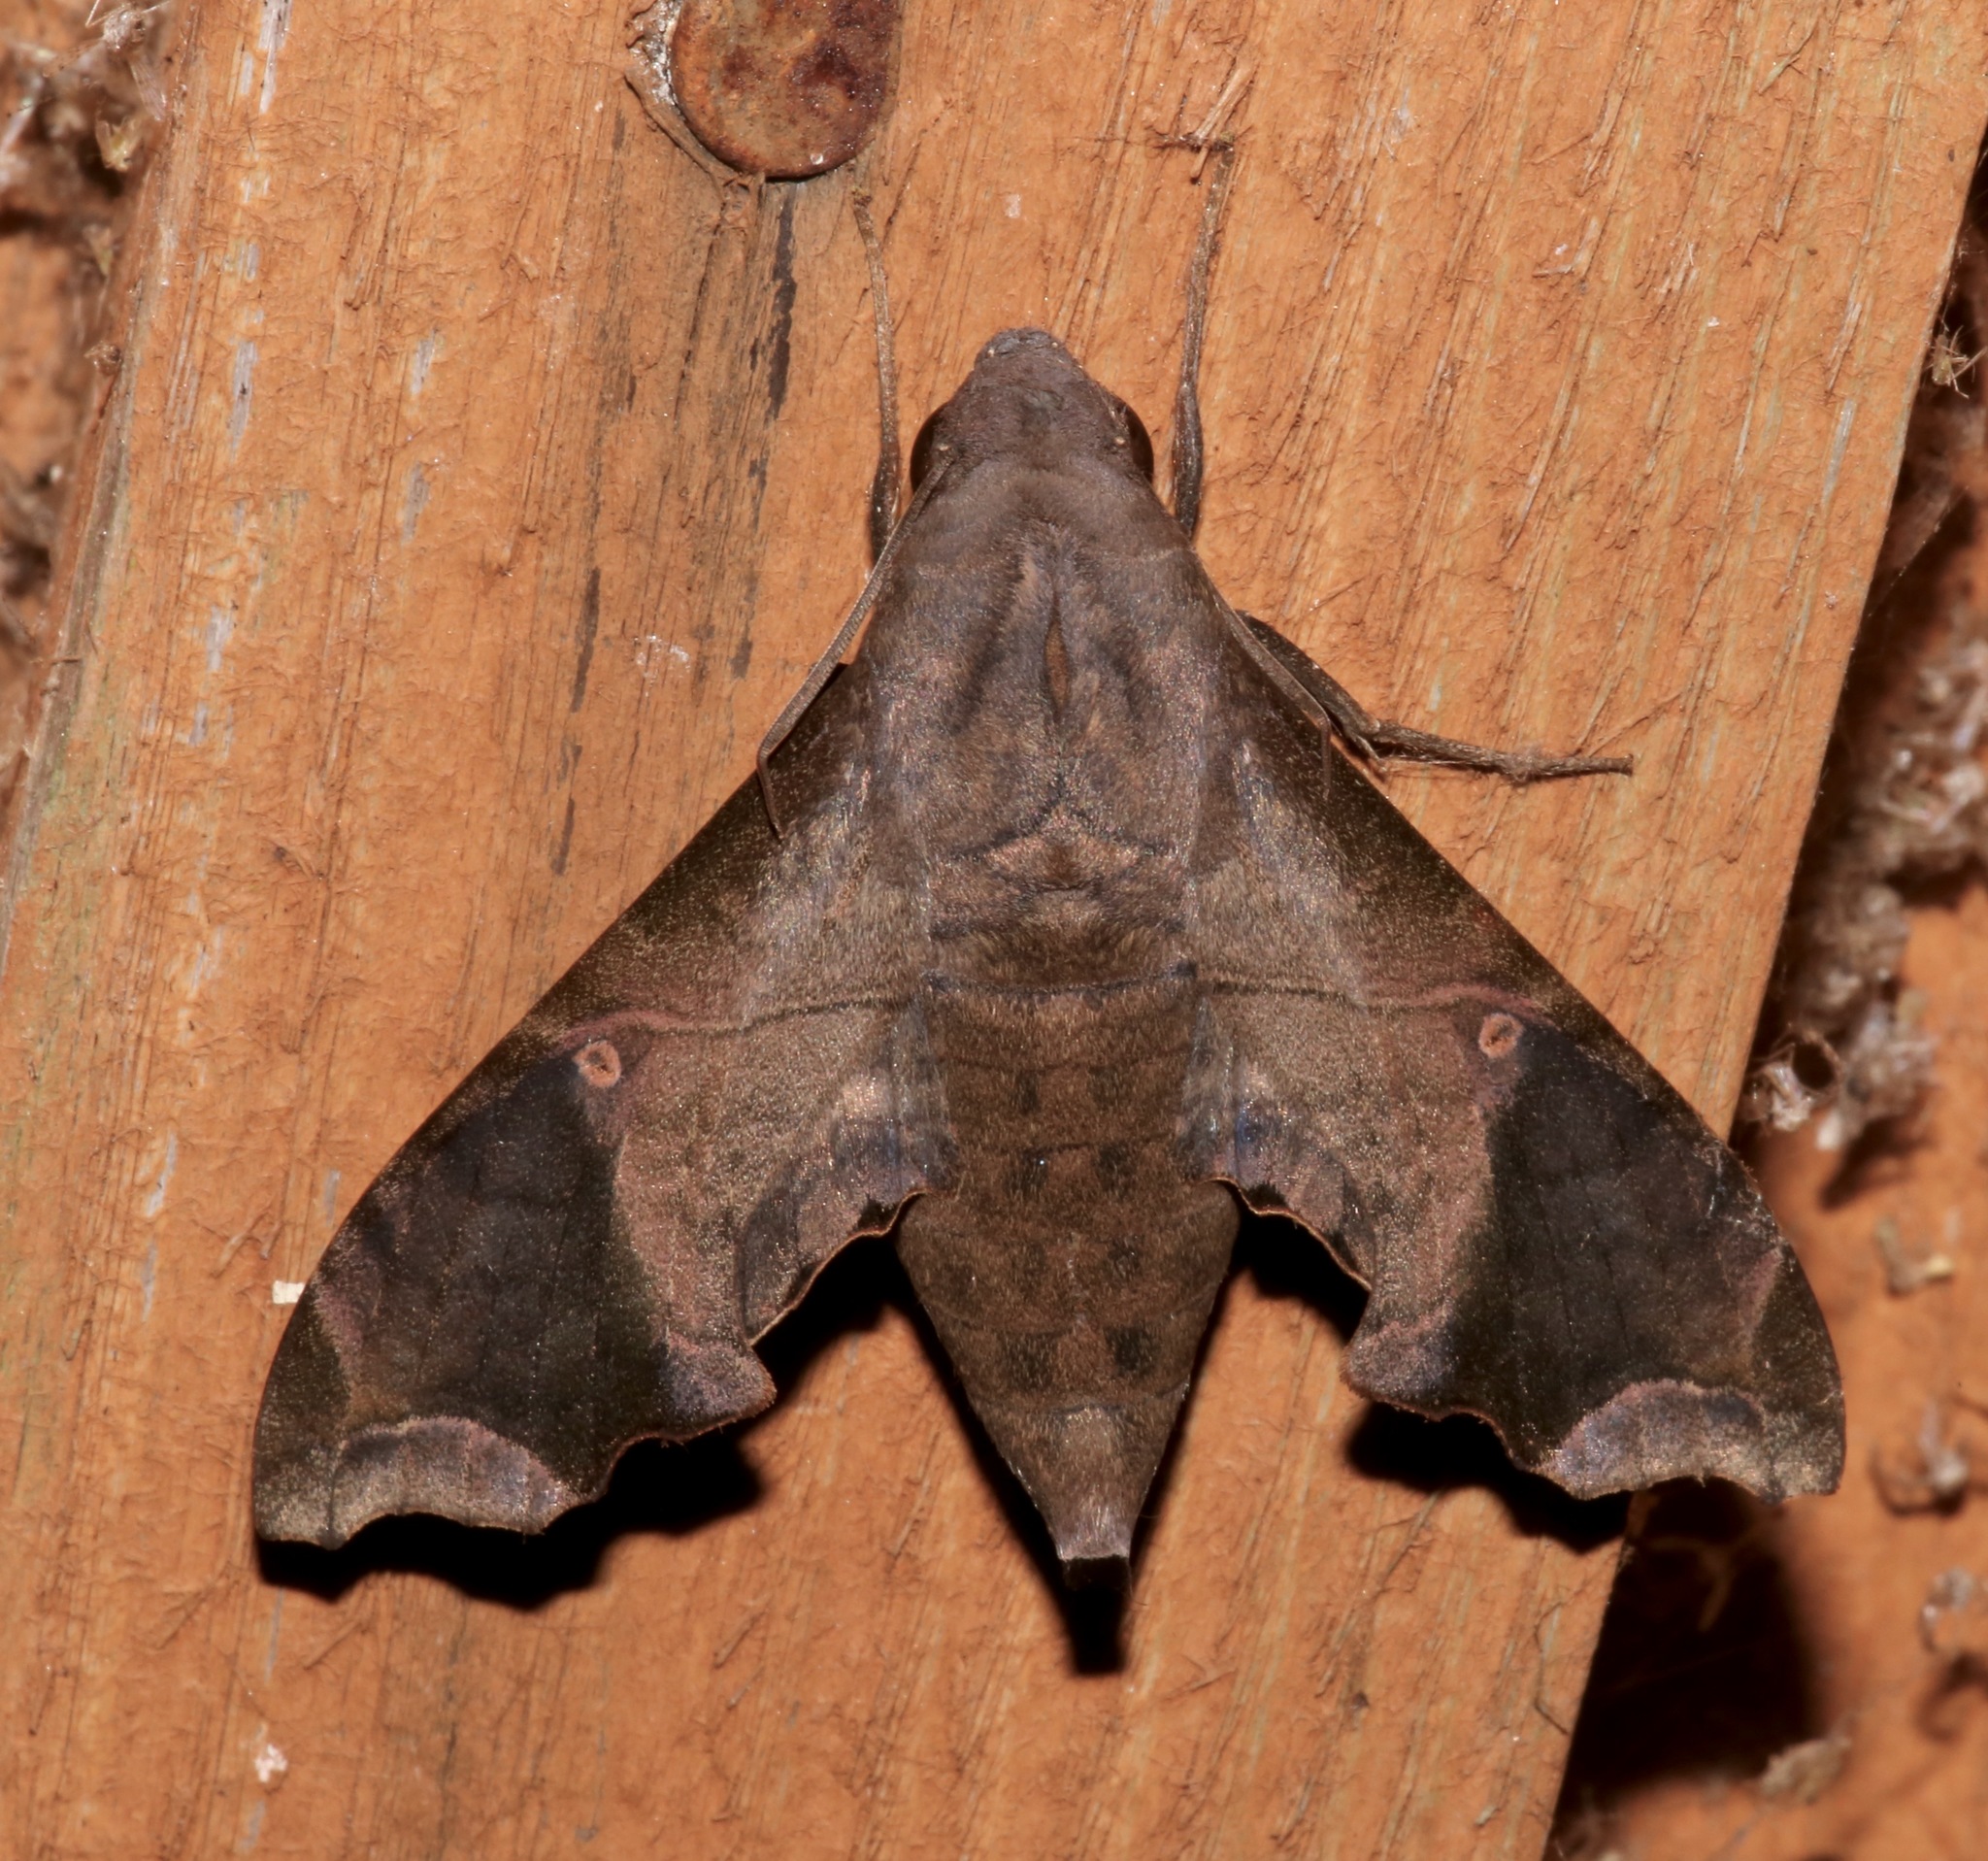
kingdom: Animalia
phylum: Arthropoda
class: Insecta
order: Lepidoptera
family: Sphingidae
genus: Enyo
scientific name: Enyo lugubris
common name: Mournful sphinx
